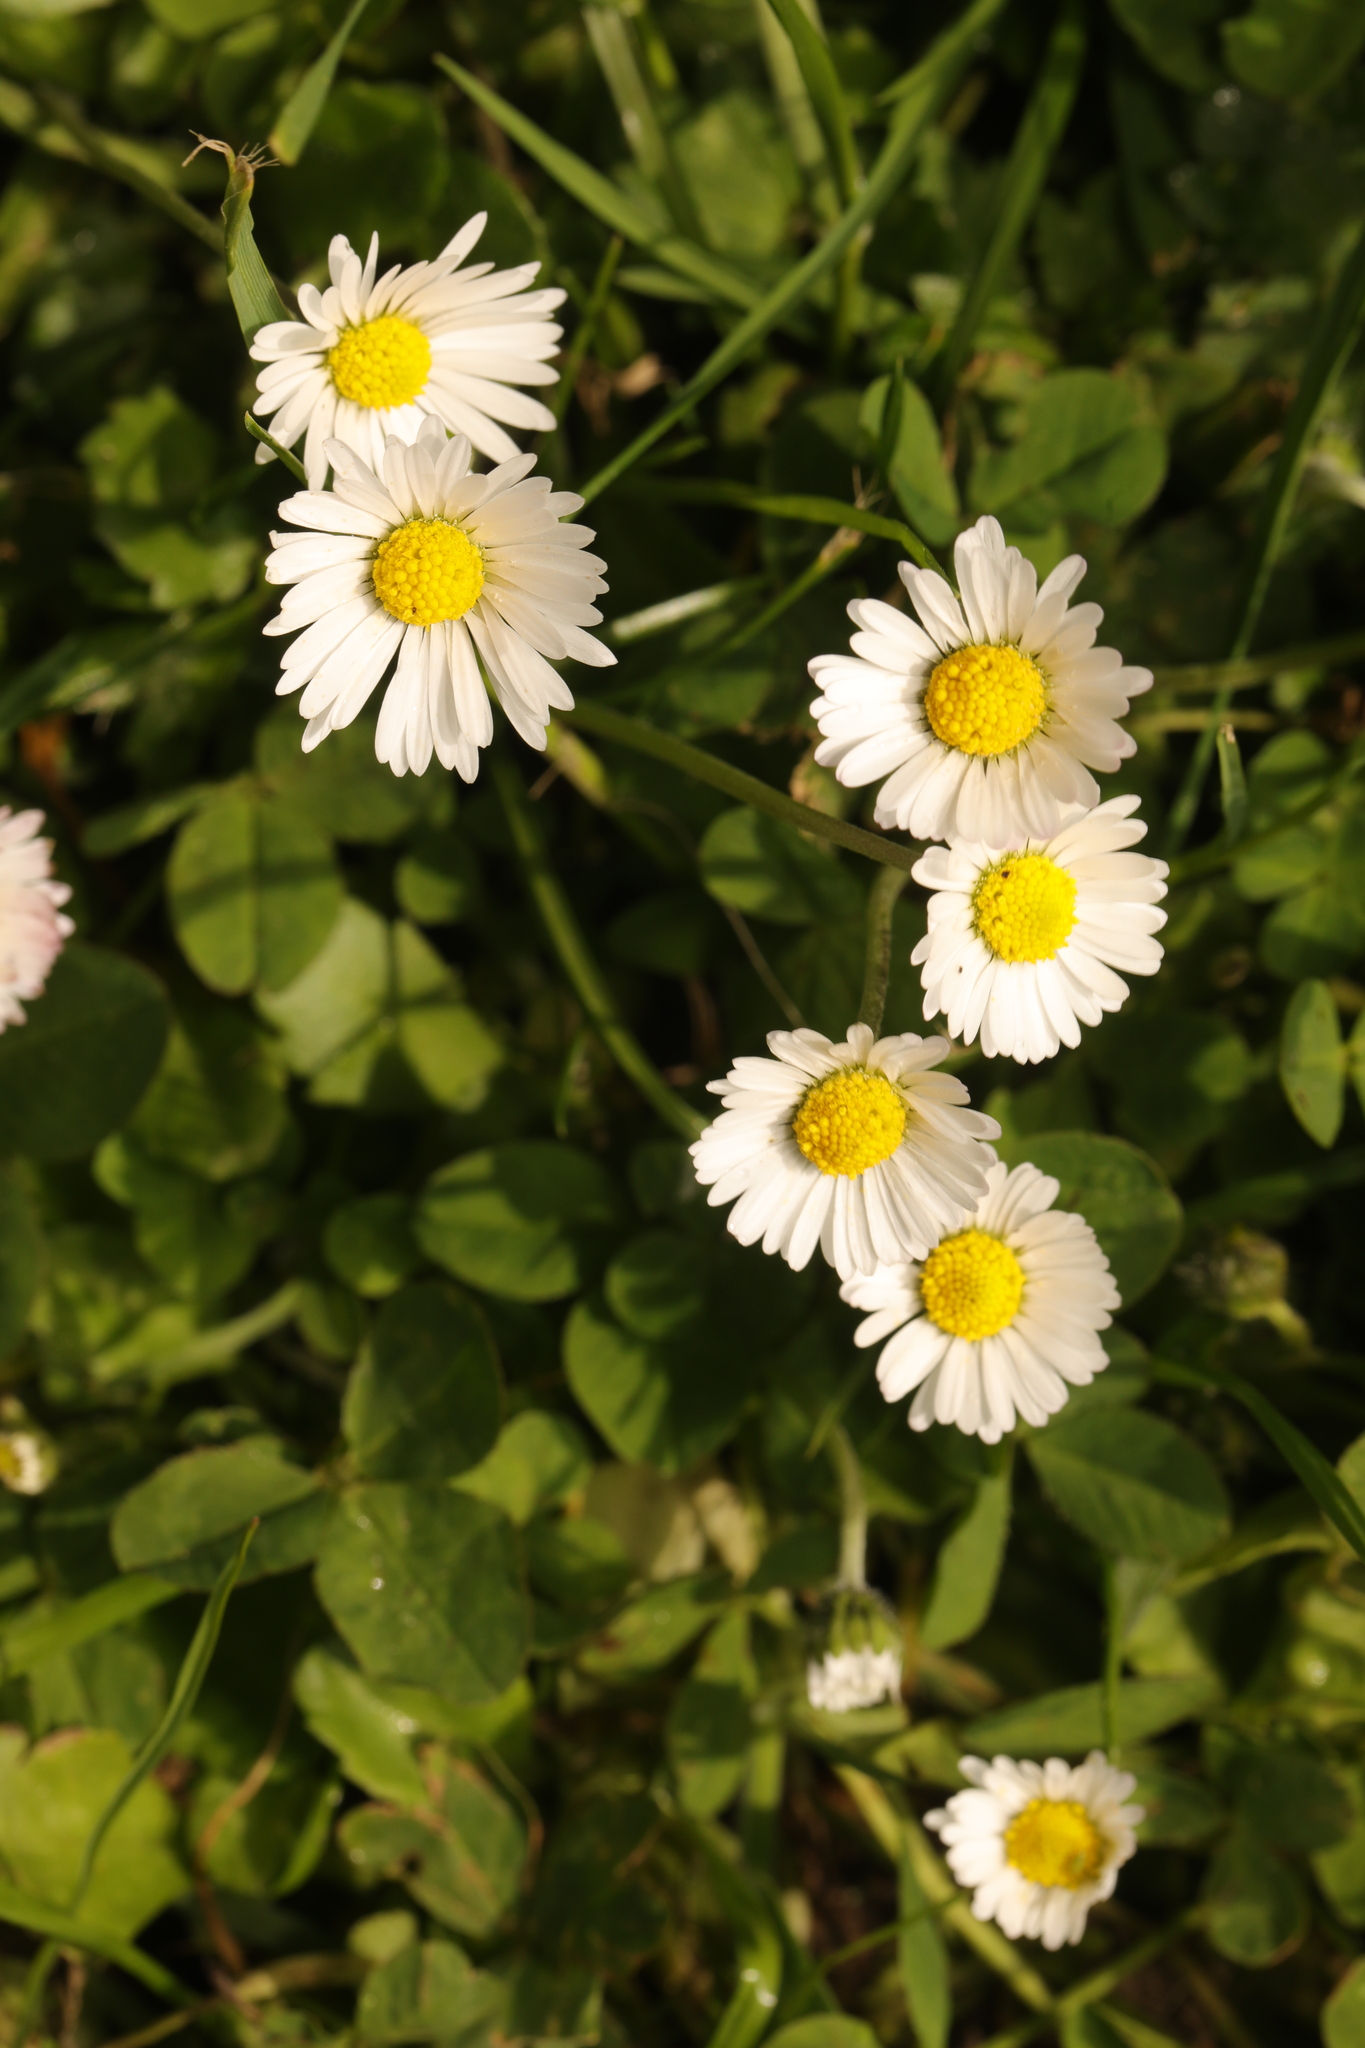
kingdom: Plantae
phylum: Tracheophyta
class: Magnoliopsida
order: Asterales
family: Asteraceae
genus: Bellis
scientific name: Bellis perennis
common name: Lawndaisy
